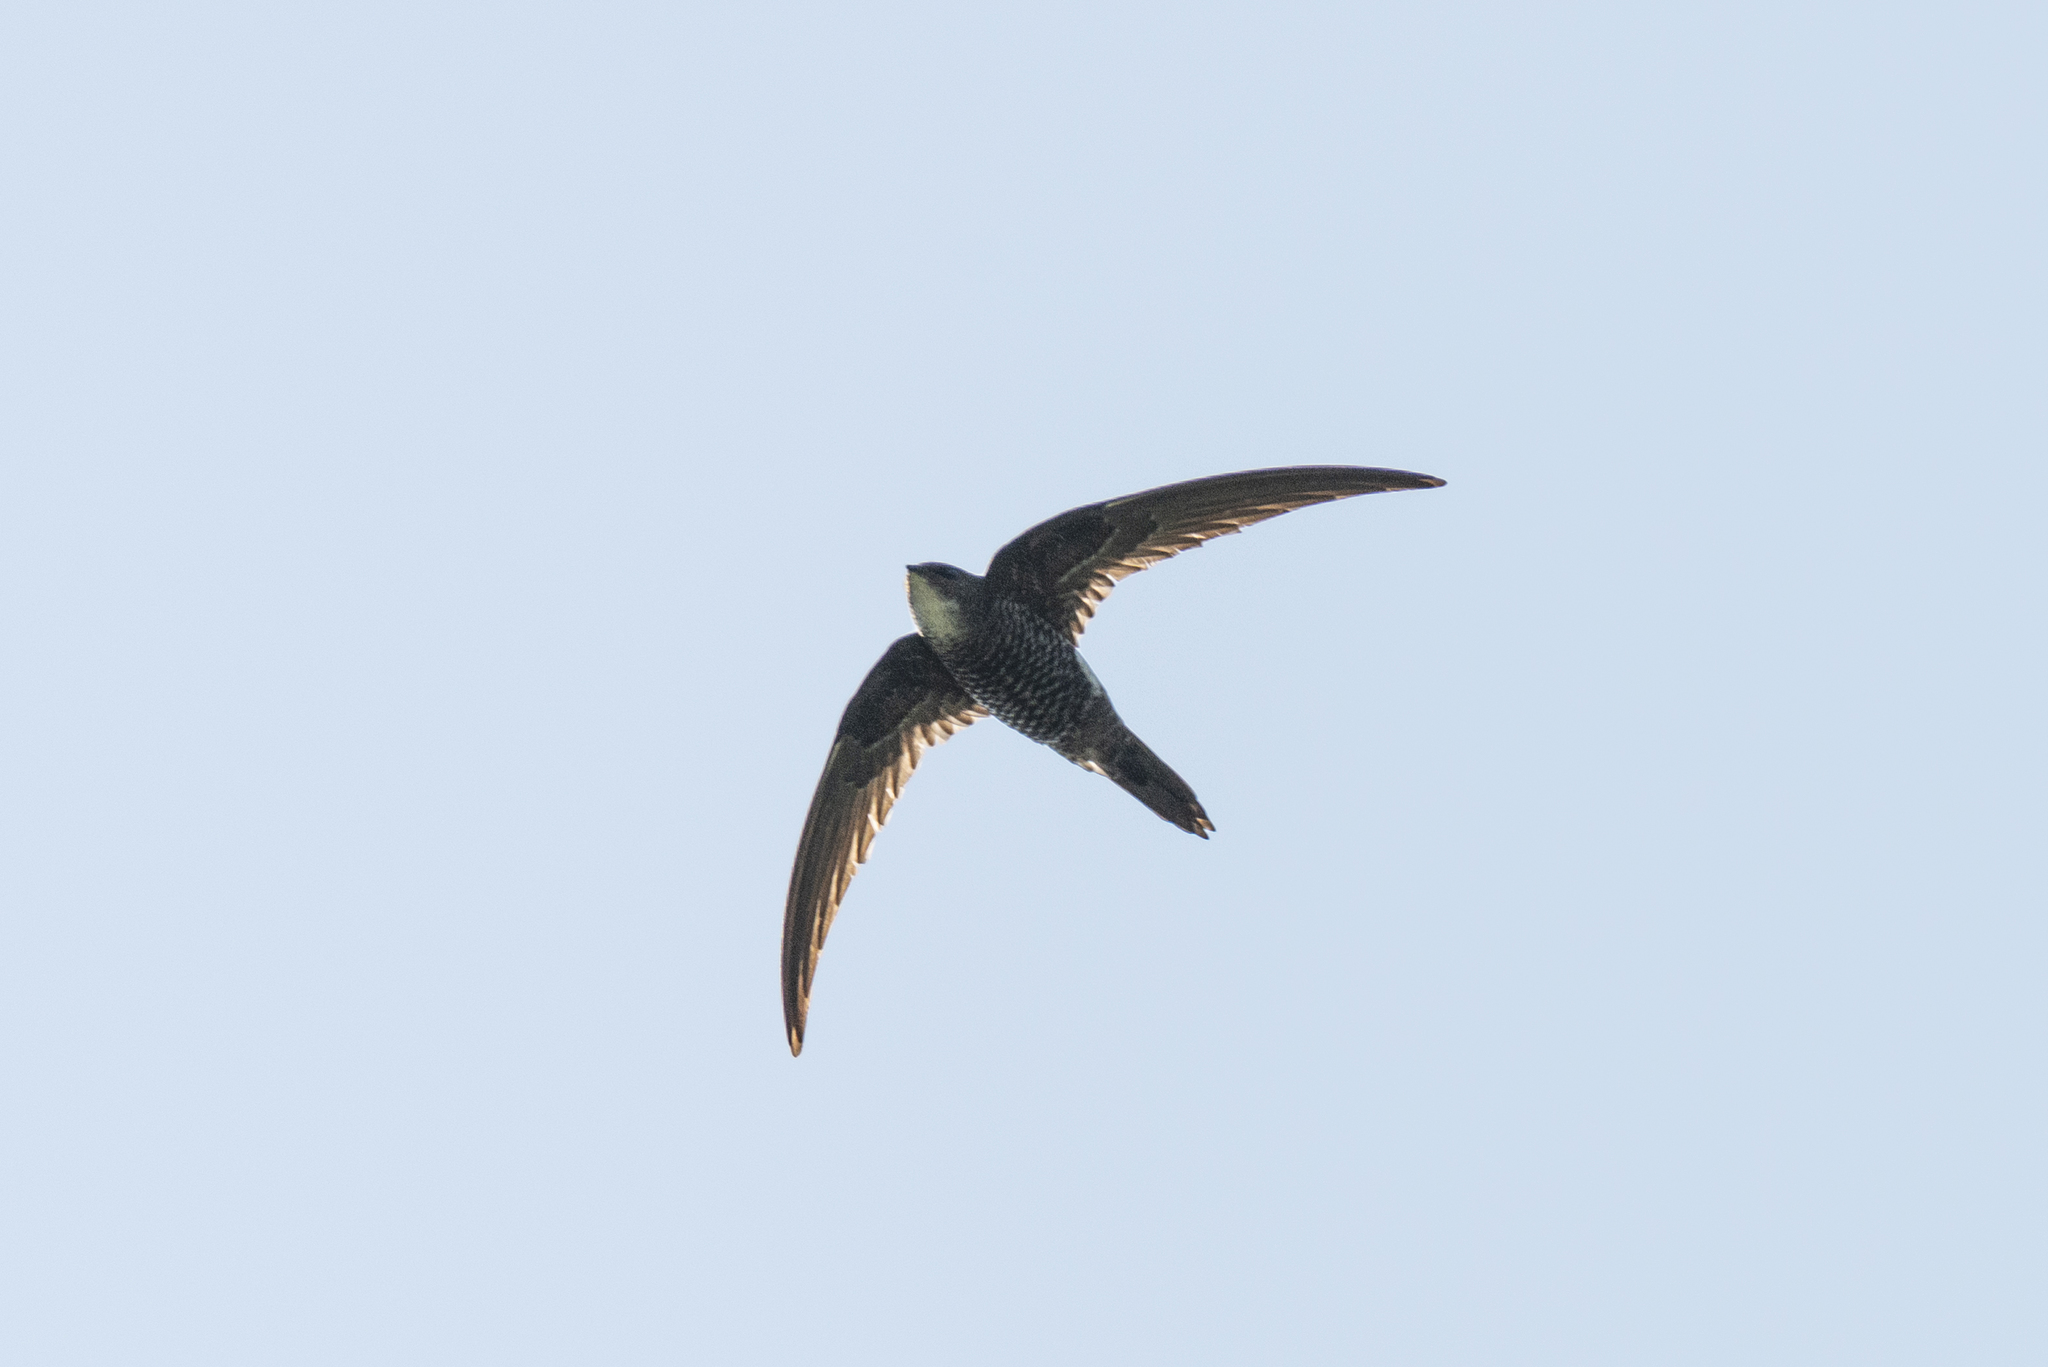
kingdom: Animalia
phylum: Chordata
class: Aves
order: Apodiformes
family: Apodidae
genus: Apus
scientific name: Apus pacificus
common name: Pacific swift
